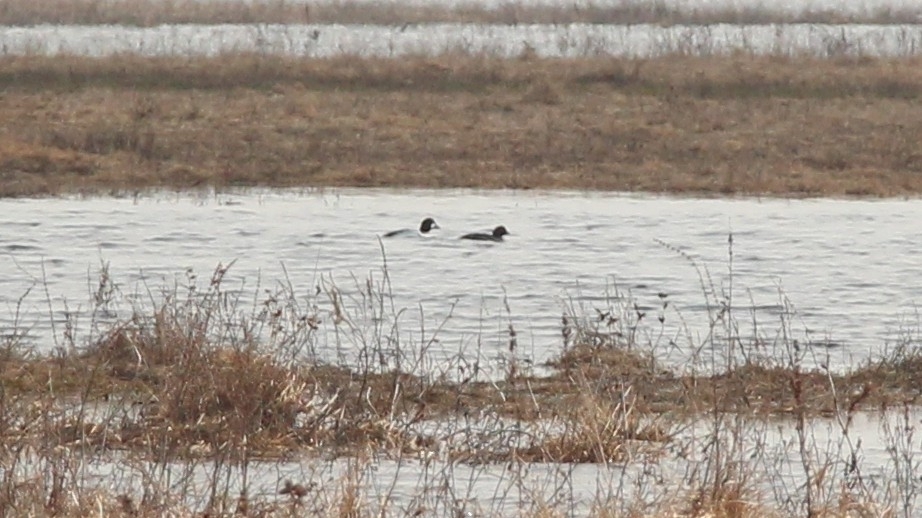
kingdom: Animalia
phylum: Chordata
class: Aves
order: Anseriformes
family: Anatidae
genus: Bucephala
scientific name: Bucephala clangula
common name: Common goldeneye
